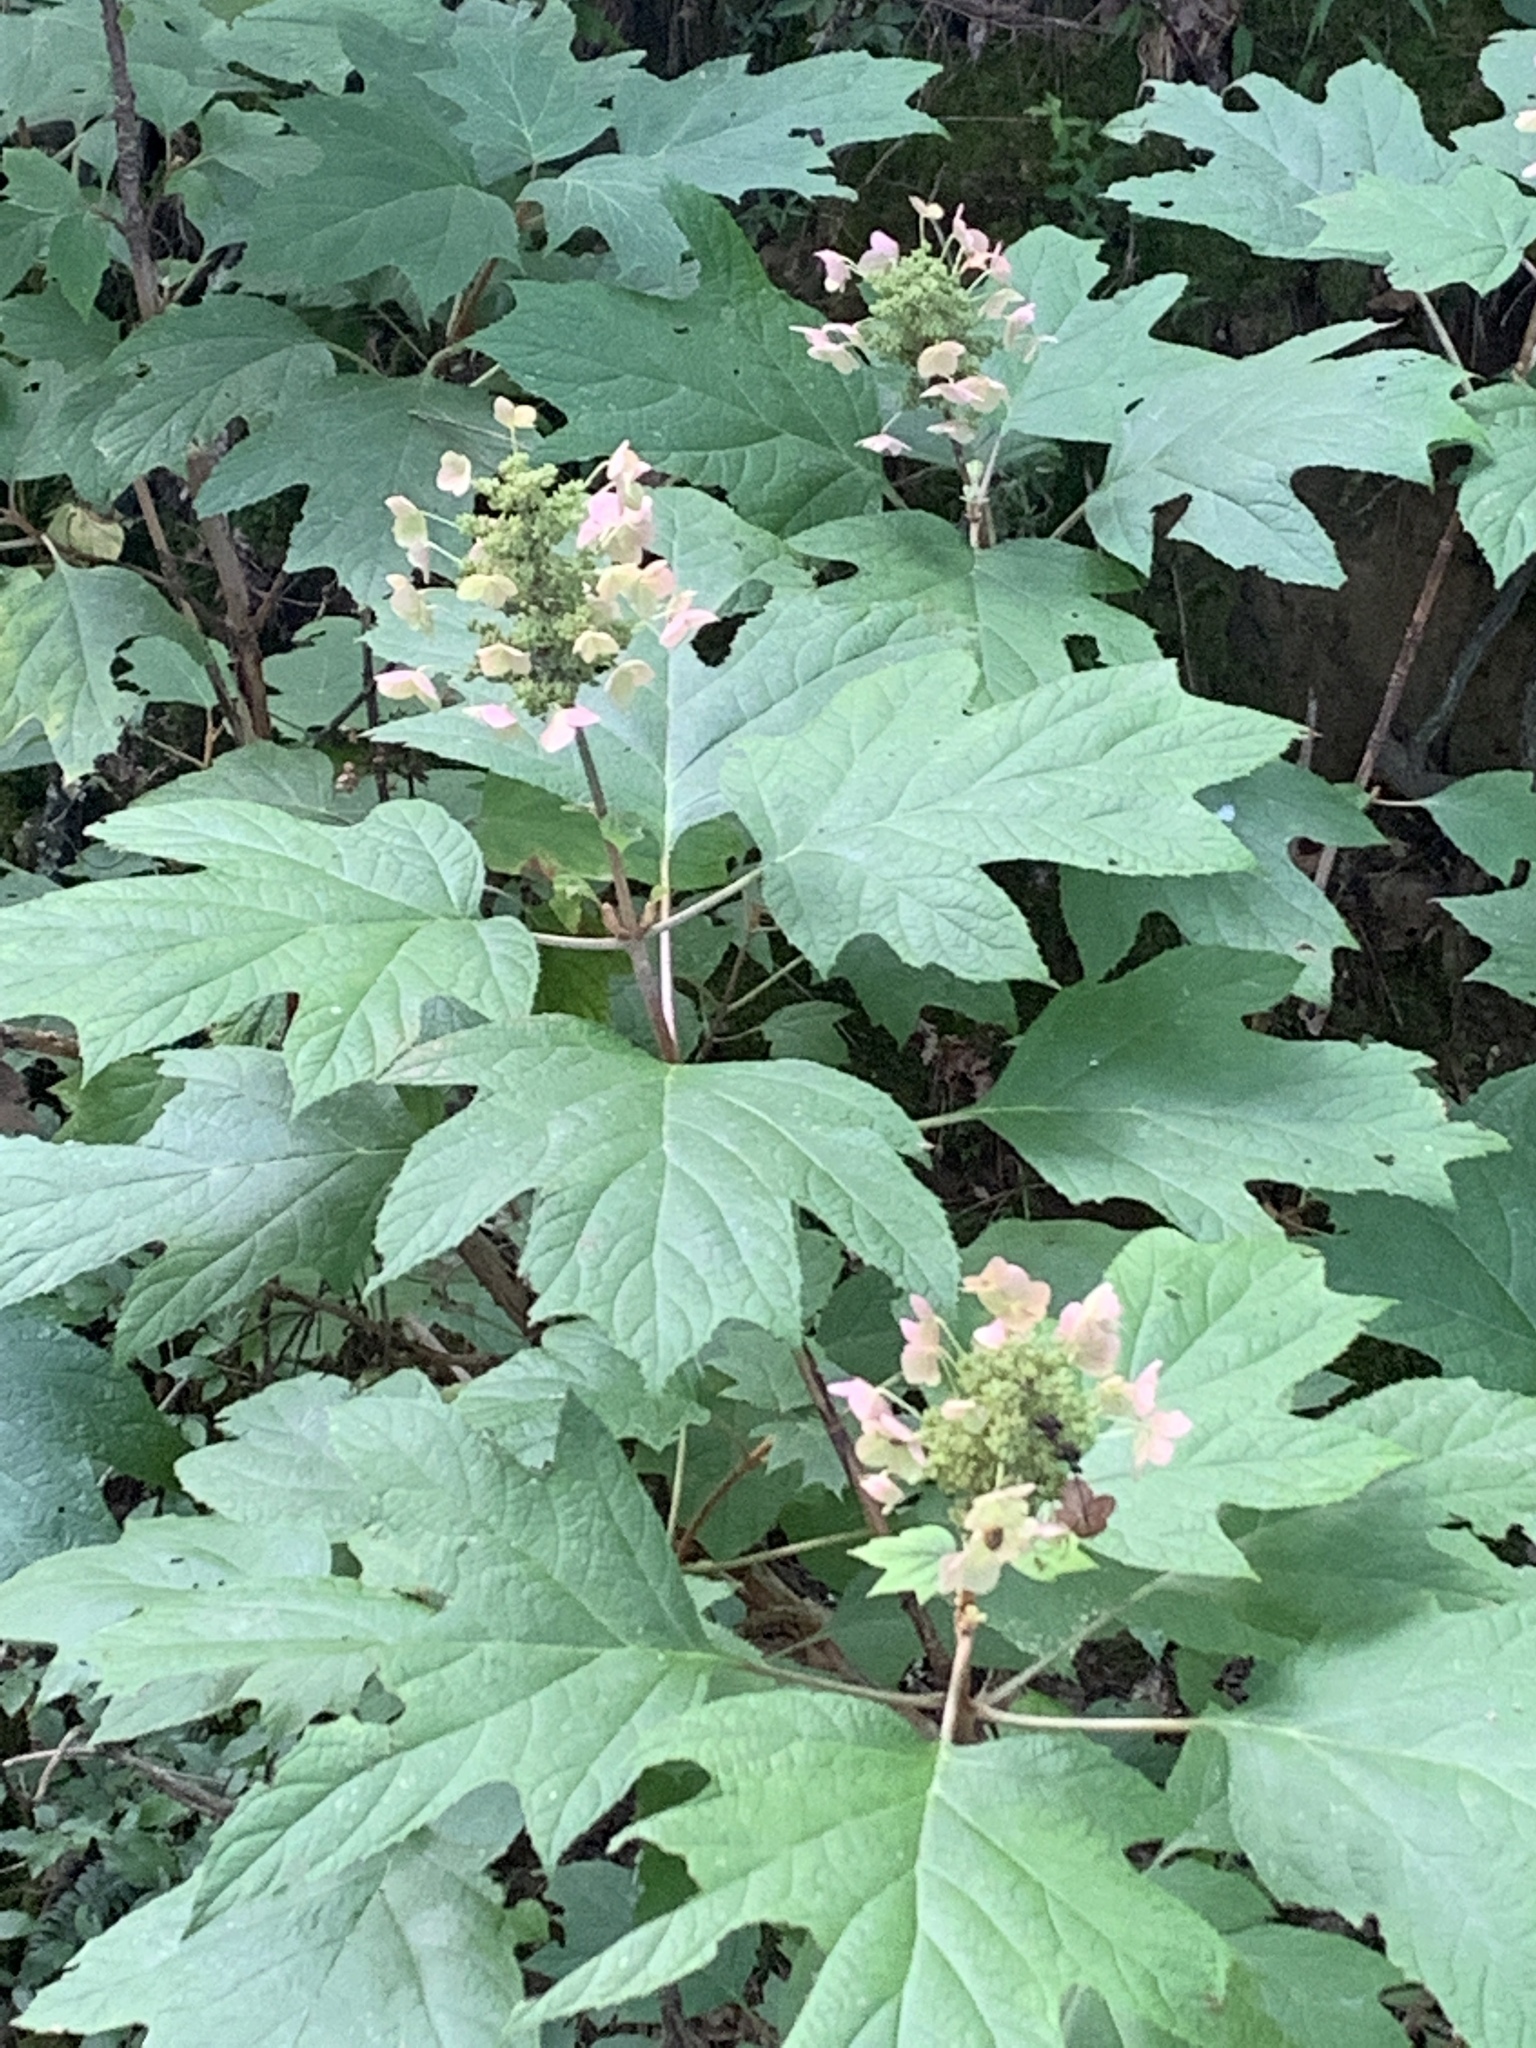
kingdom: Plantae
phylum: Tracheophyta
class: Magnoliopsida
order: Cornales
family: Hydrangeaceae
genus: Hydrangea
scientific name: Hydrangea quercifolia
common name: Oak-leaf hydrangea
